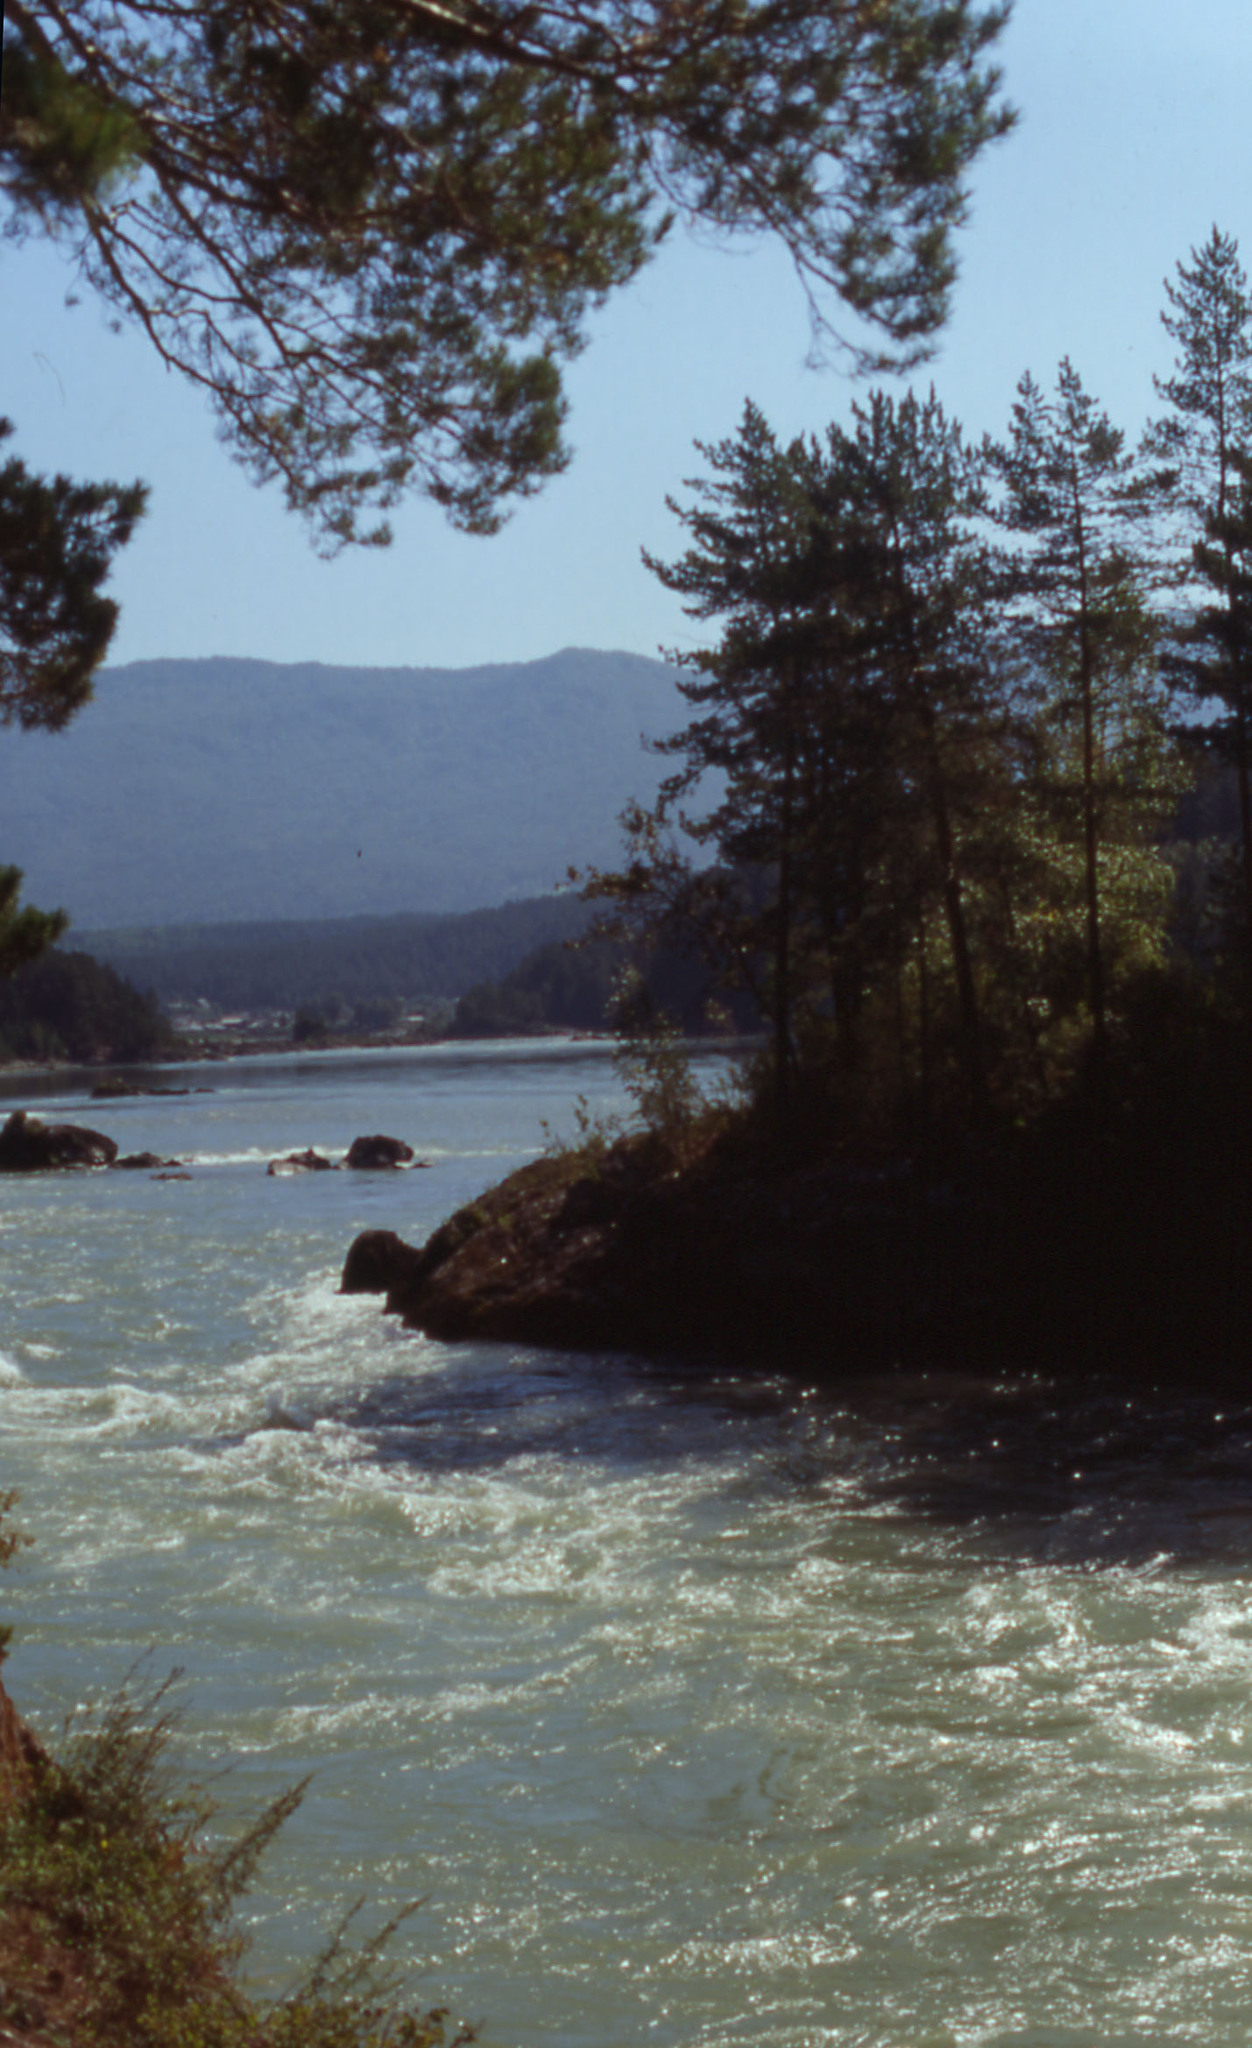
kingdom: Plantae
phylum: Tracheophyta
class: Pinopsida
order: Pinales
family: Pinaceae
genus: Pinus
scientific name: Pinus sylvestris
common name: Scots pine
